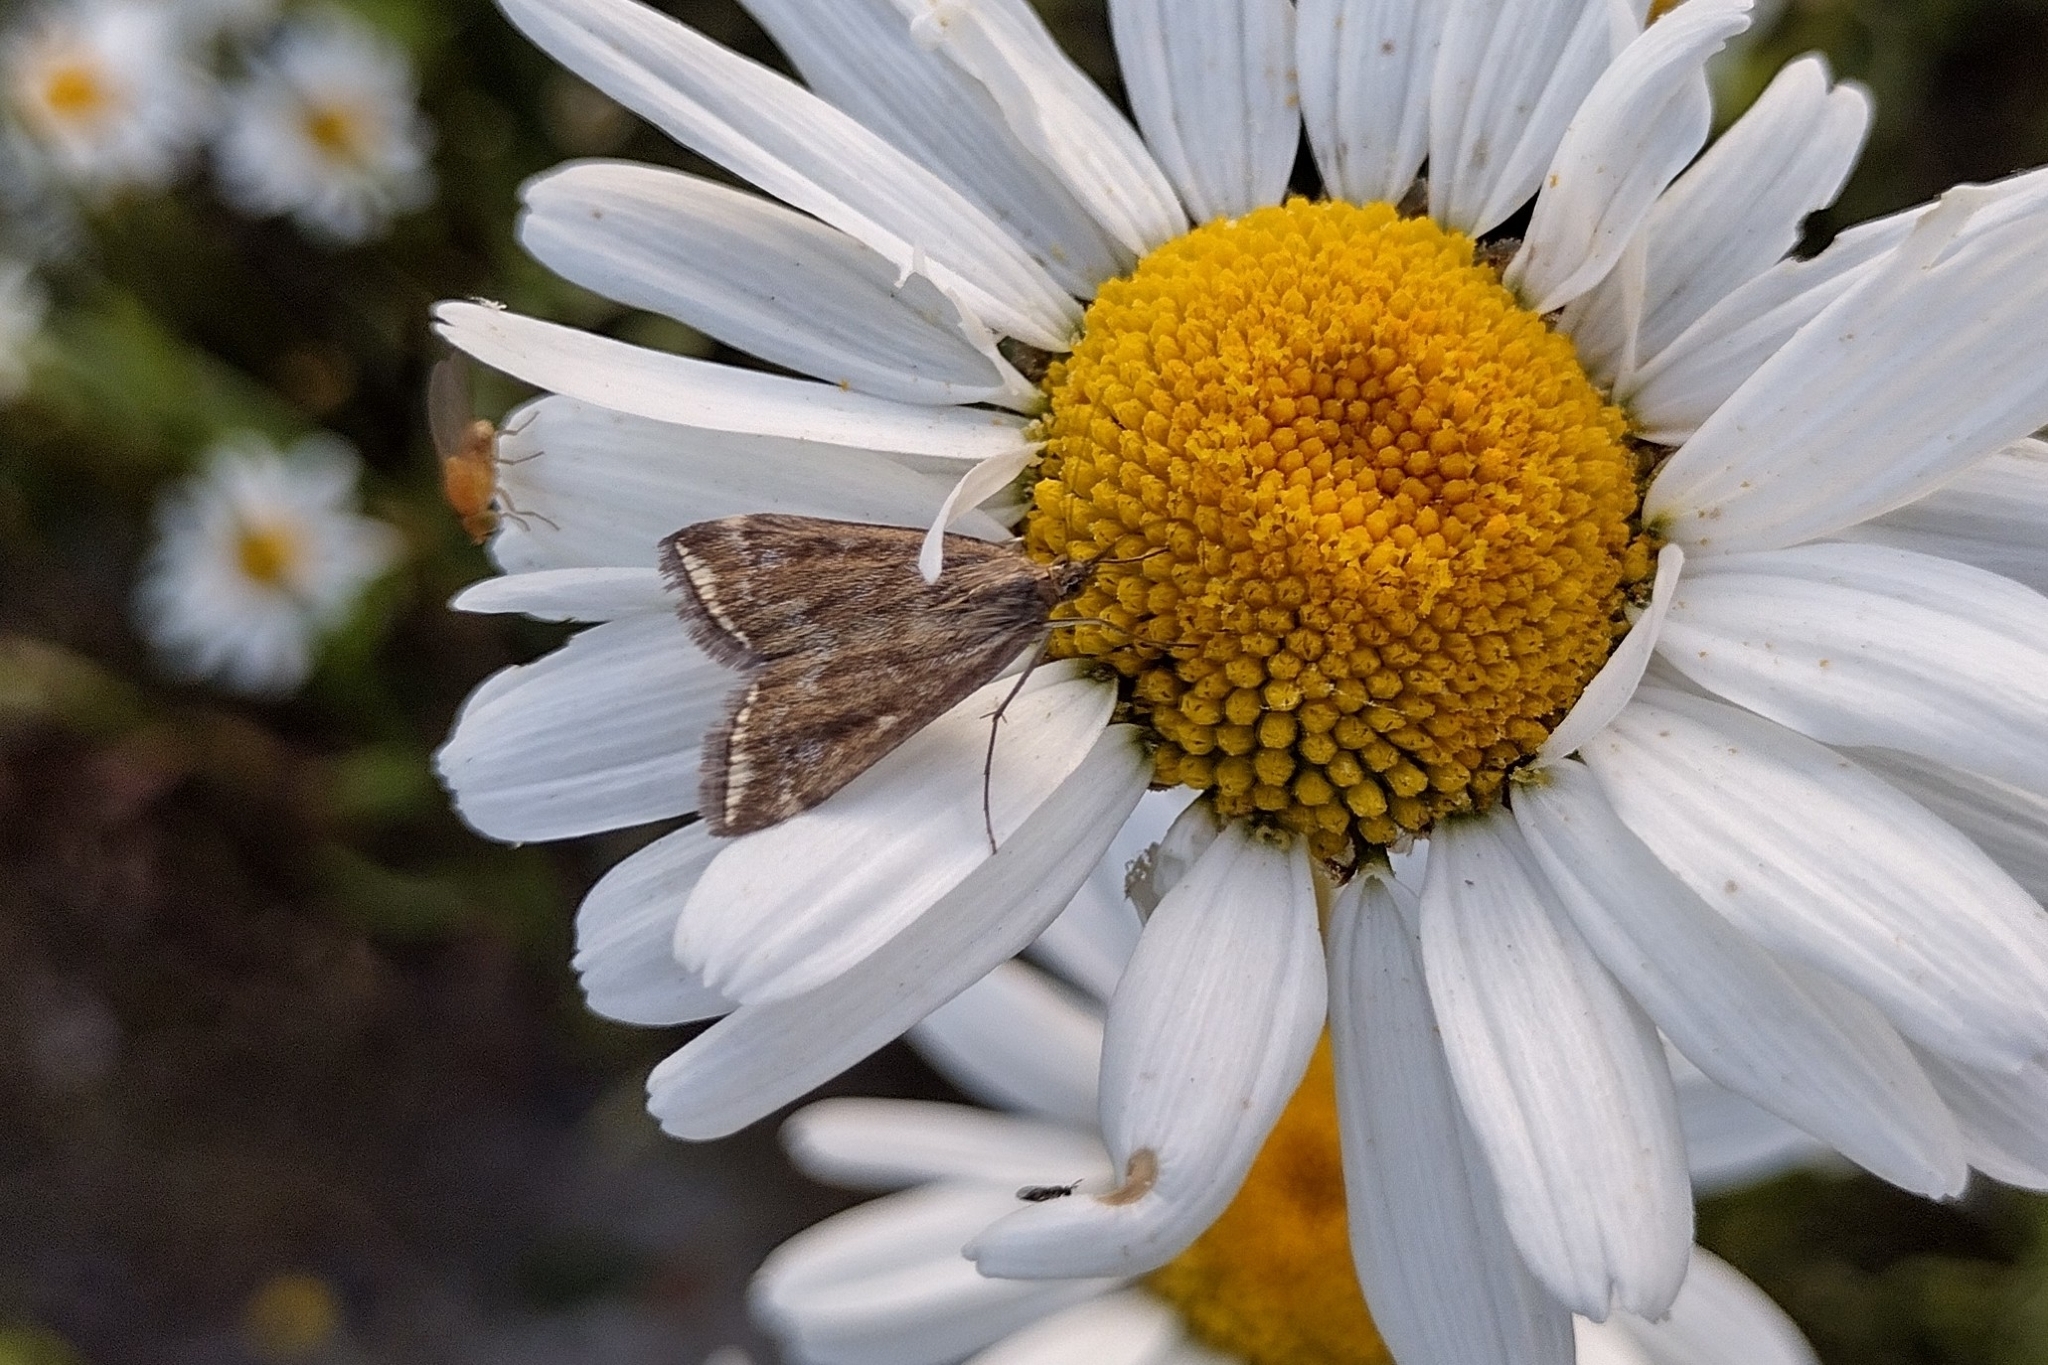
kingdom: Animalia
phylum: Arthropoda
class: Insecta
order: Lepidoptera
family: Crambidae
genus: Loxostege
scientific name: Loxostege sticticalis
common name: Crambid moth
